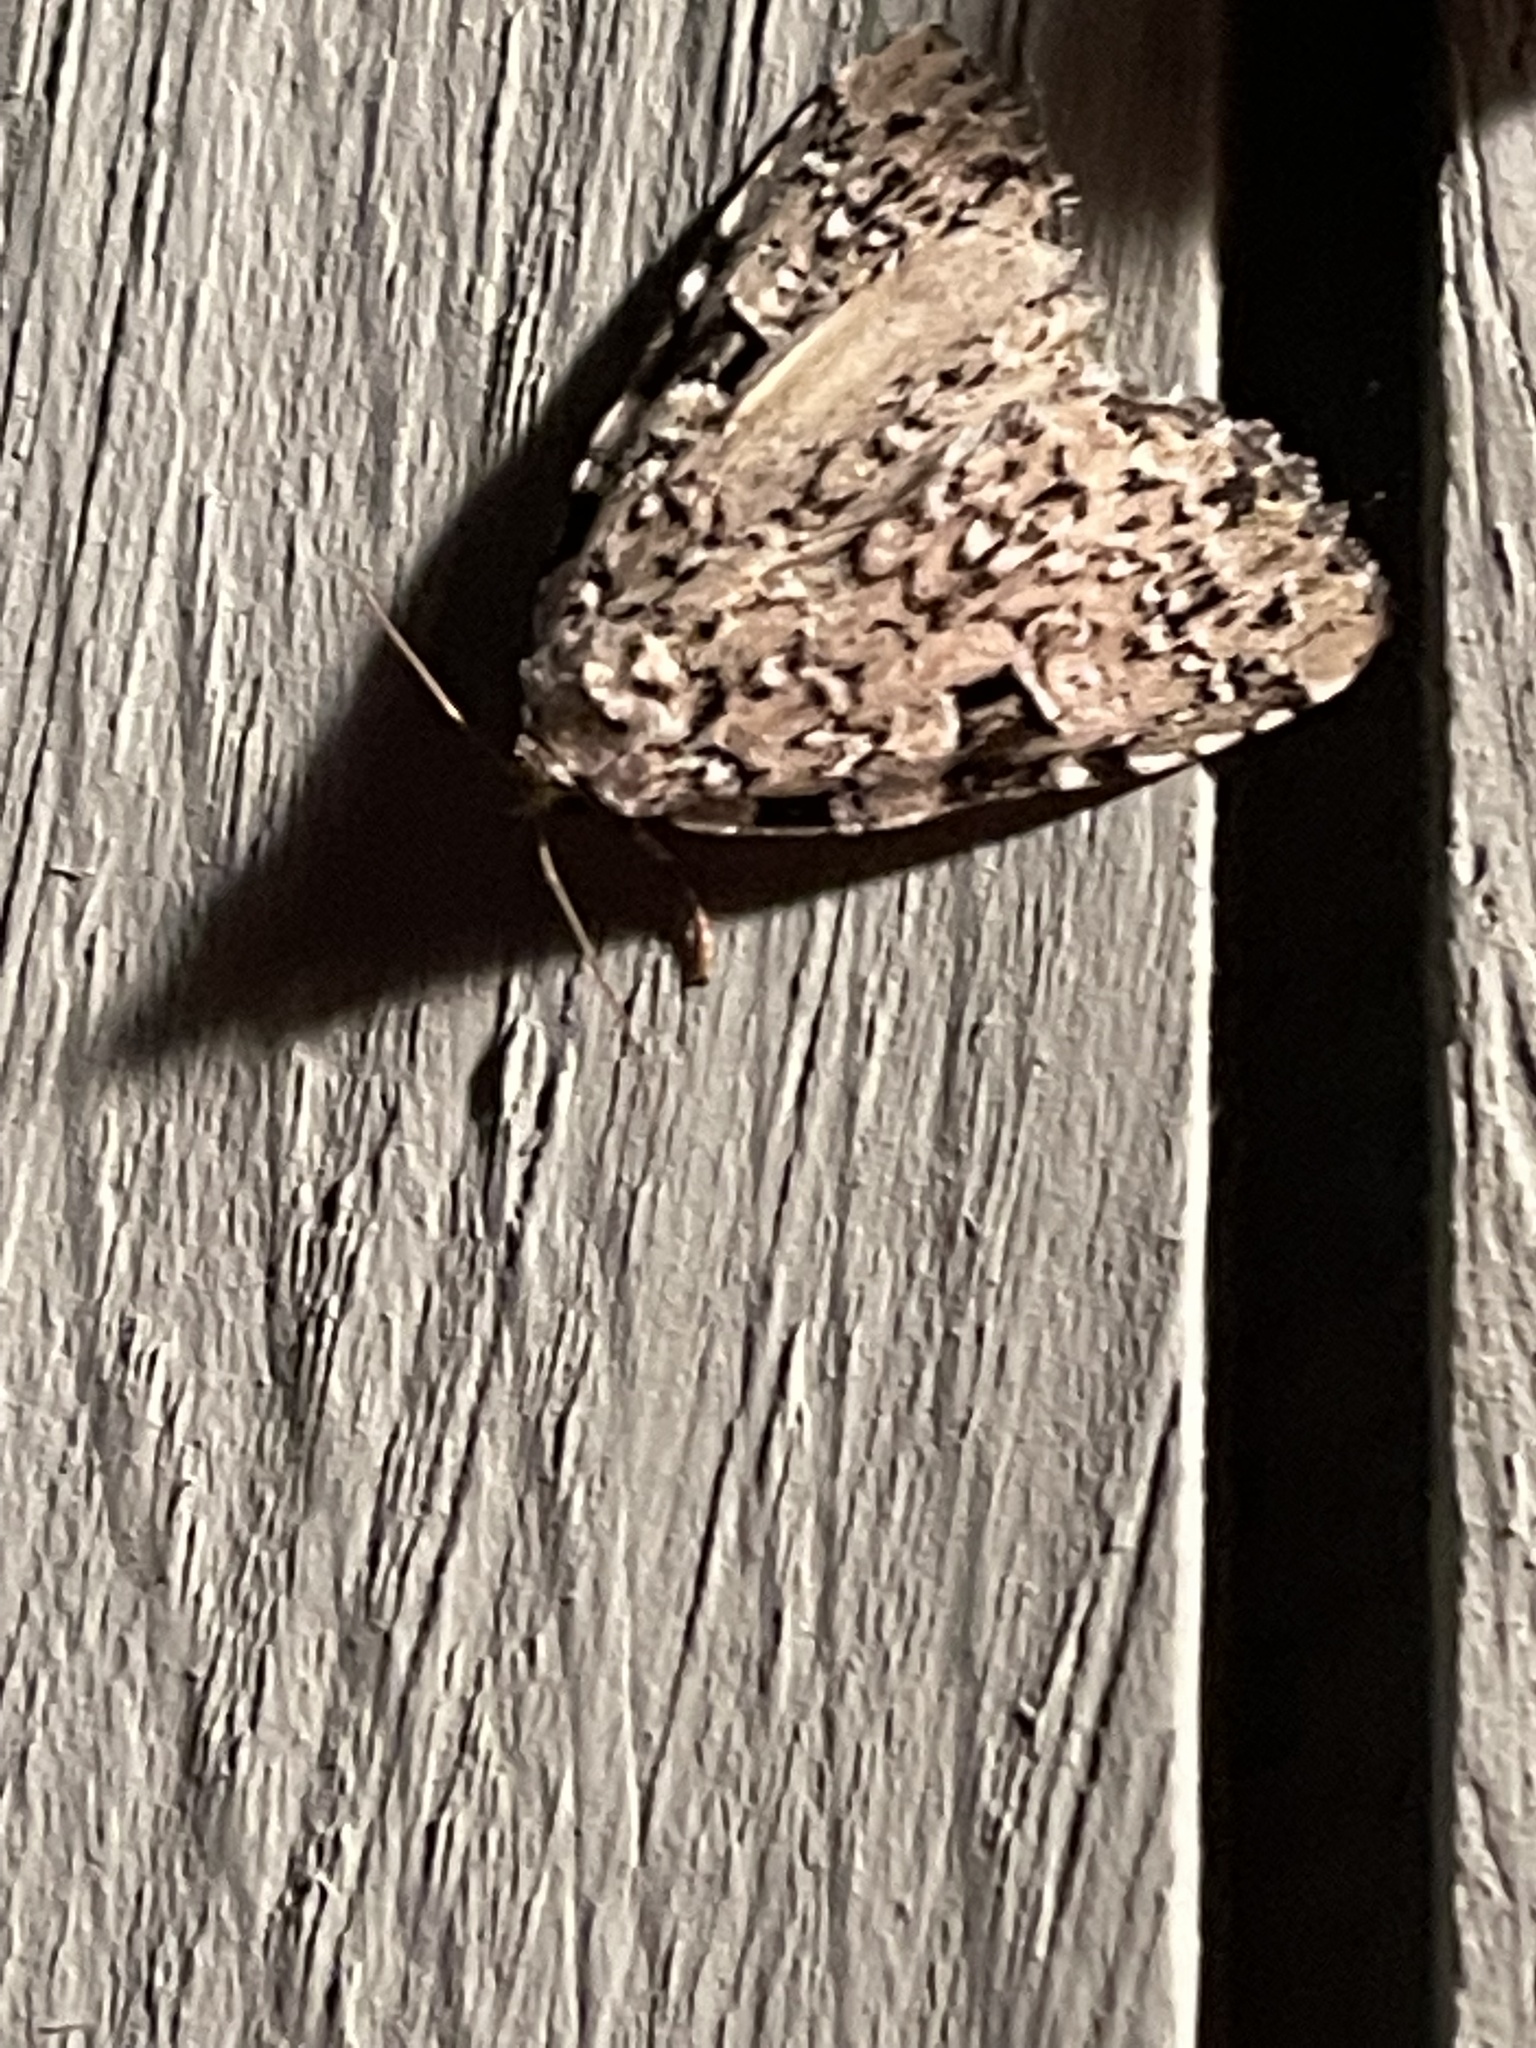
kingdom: Animalia
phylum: Arthropoda
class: Insecta
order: Lepidoptera
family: Noctuidae
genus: Leuconycta
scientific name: Leuconycta diphteroides
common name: Green leuconycta moth
